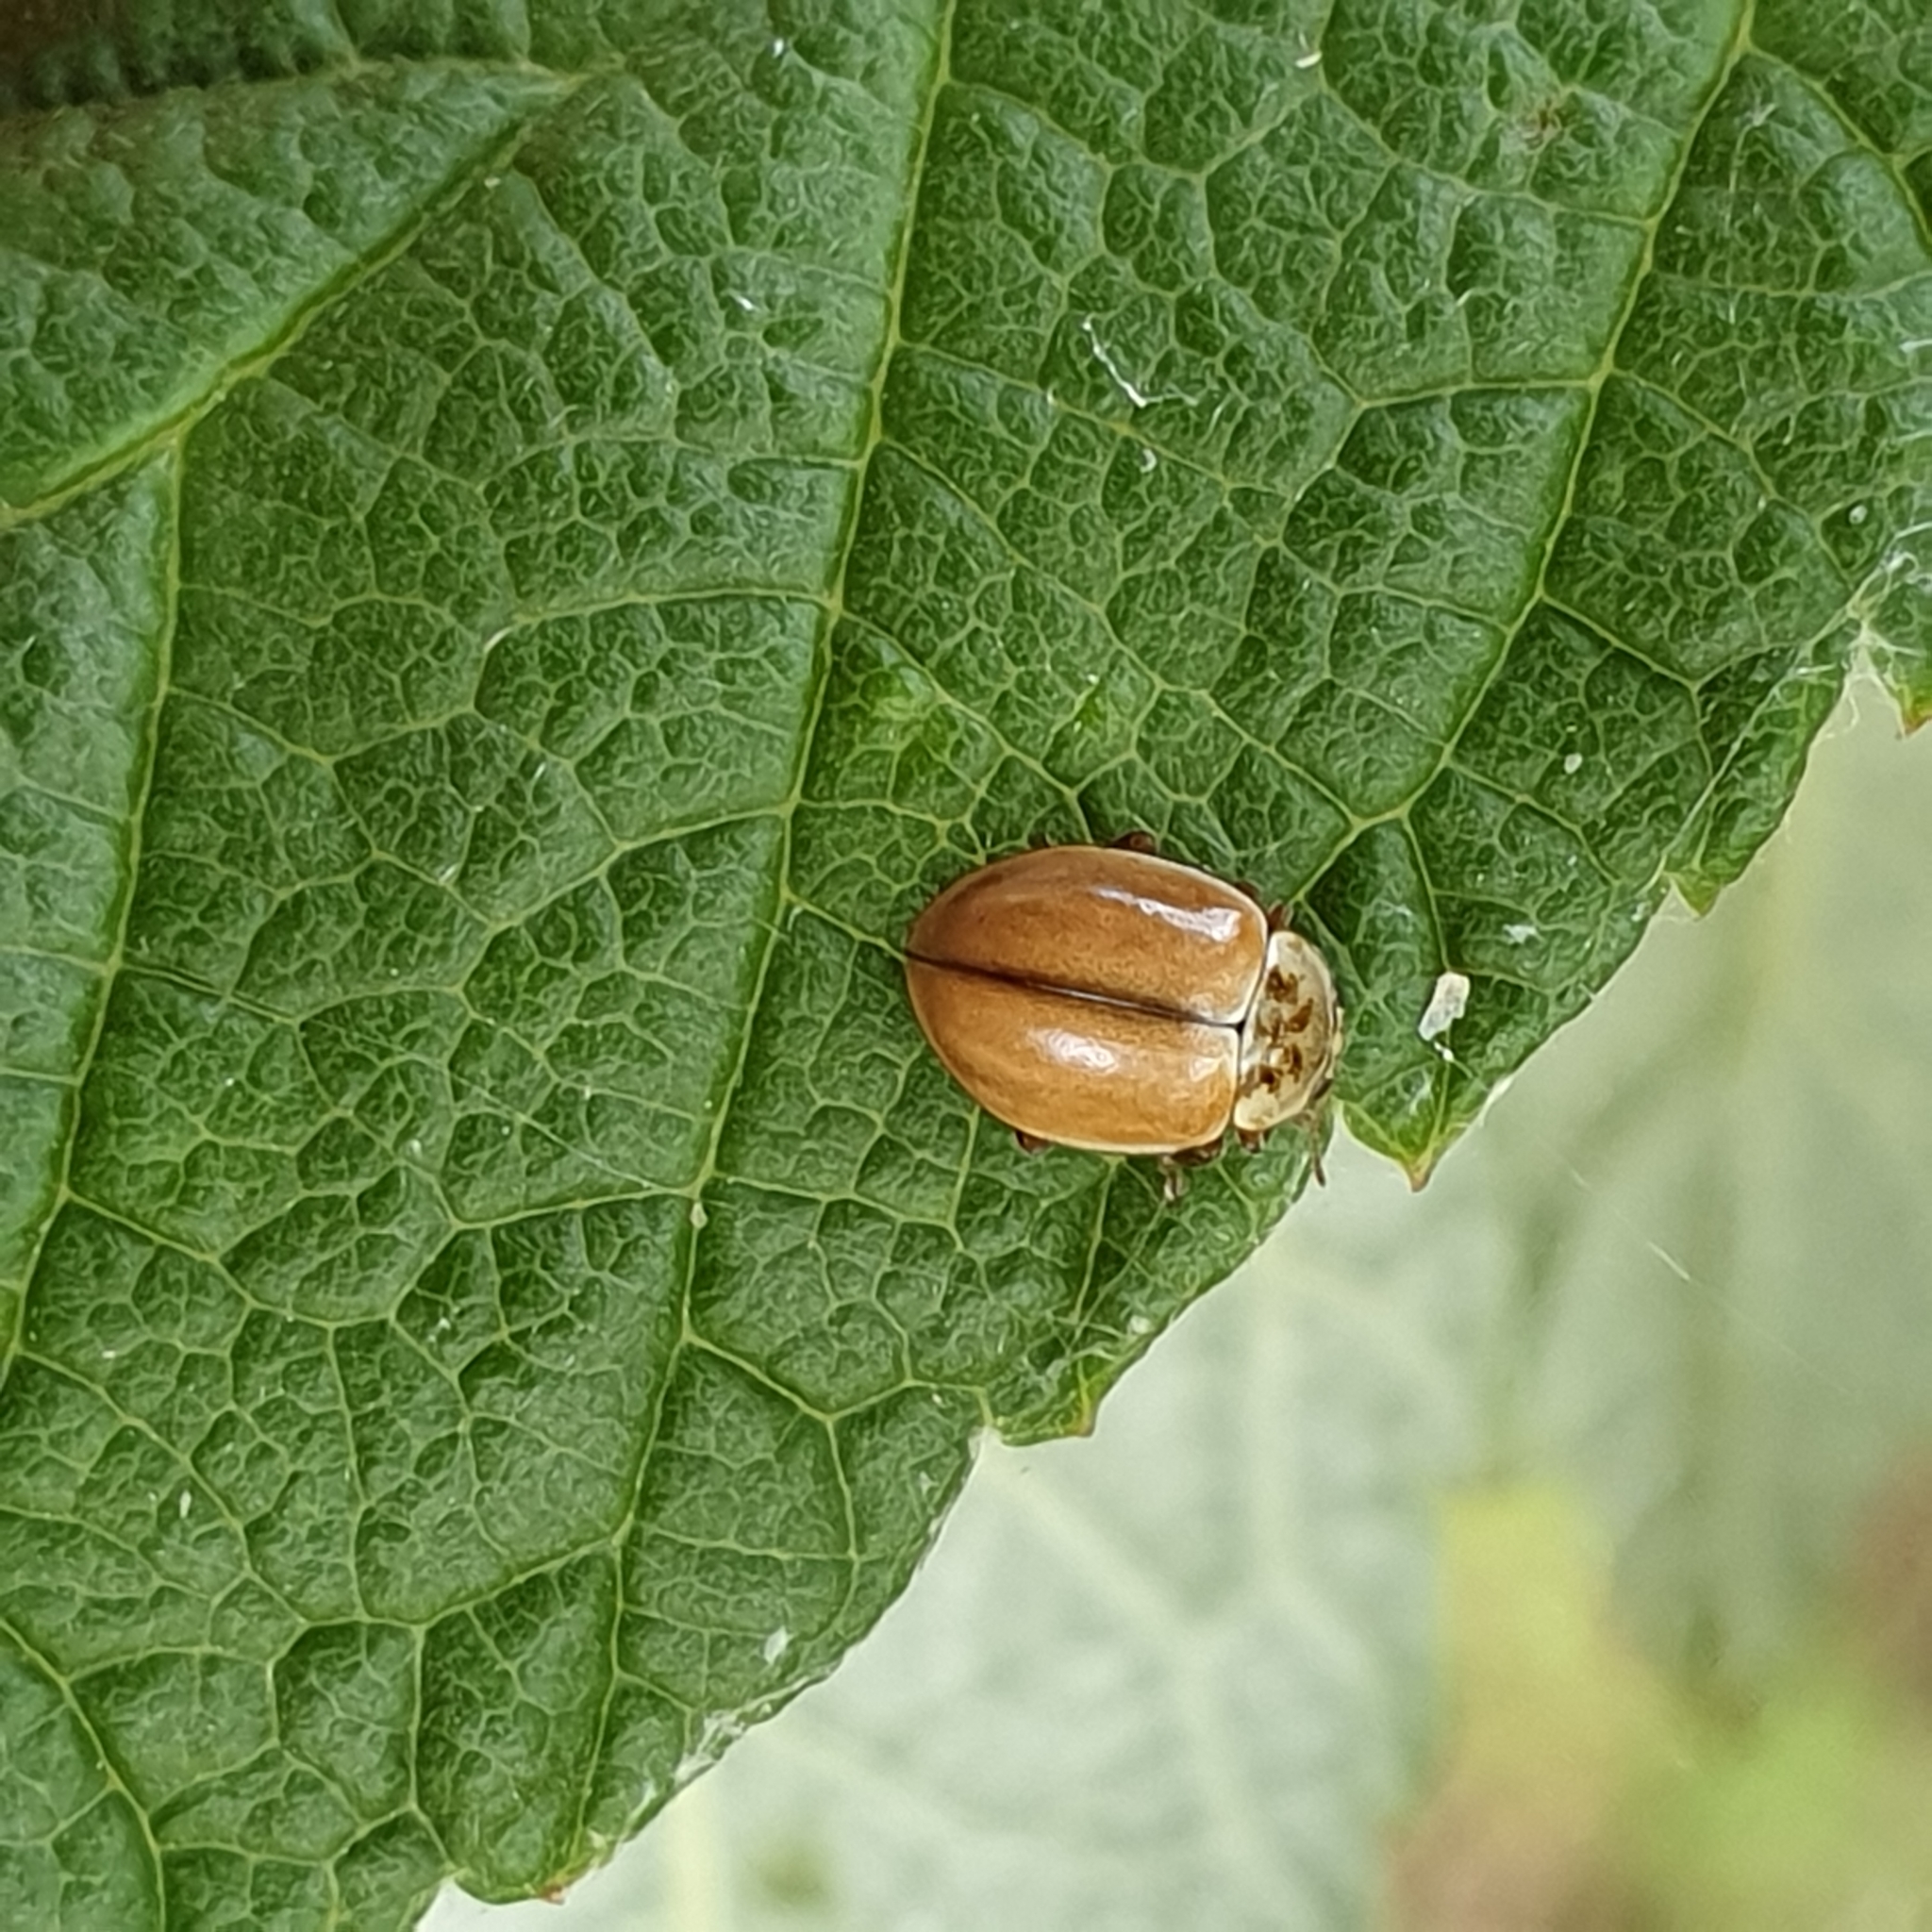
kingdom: Animalia
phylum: Arthropoda
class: Insecta
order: Coleoptera
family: Coccinellidae
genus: Aphidecta
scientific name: Aphidecta obliterata
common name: Larch ladybird
